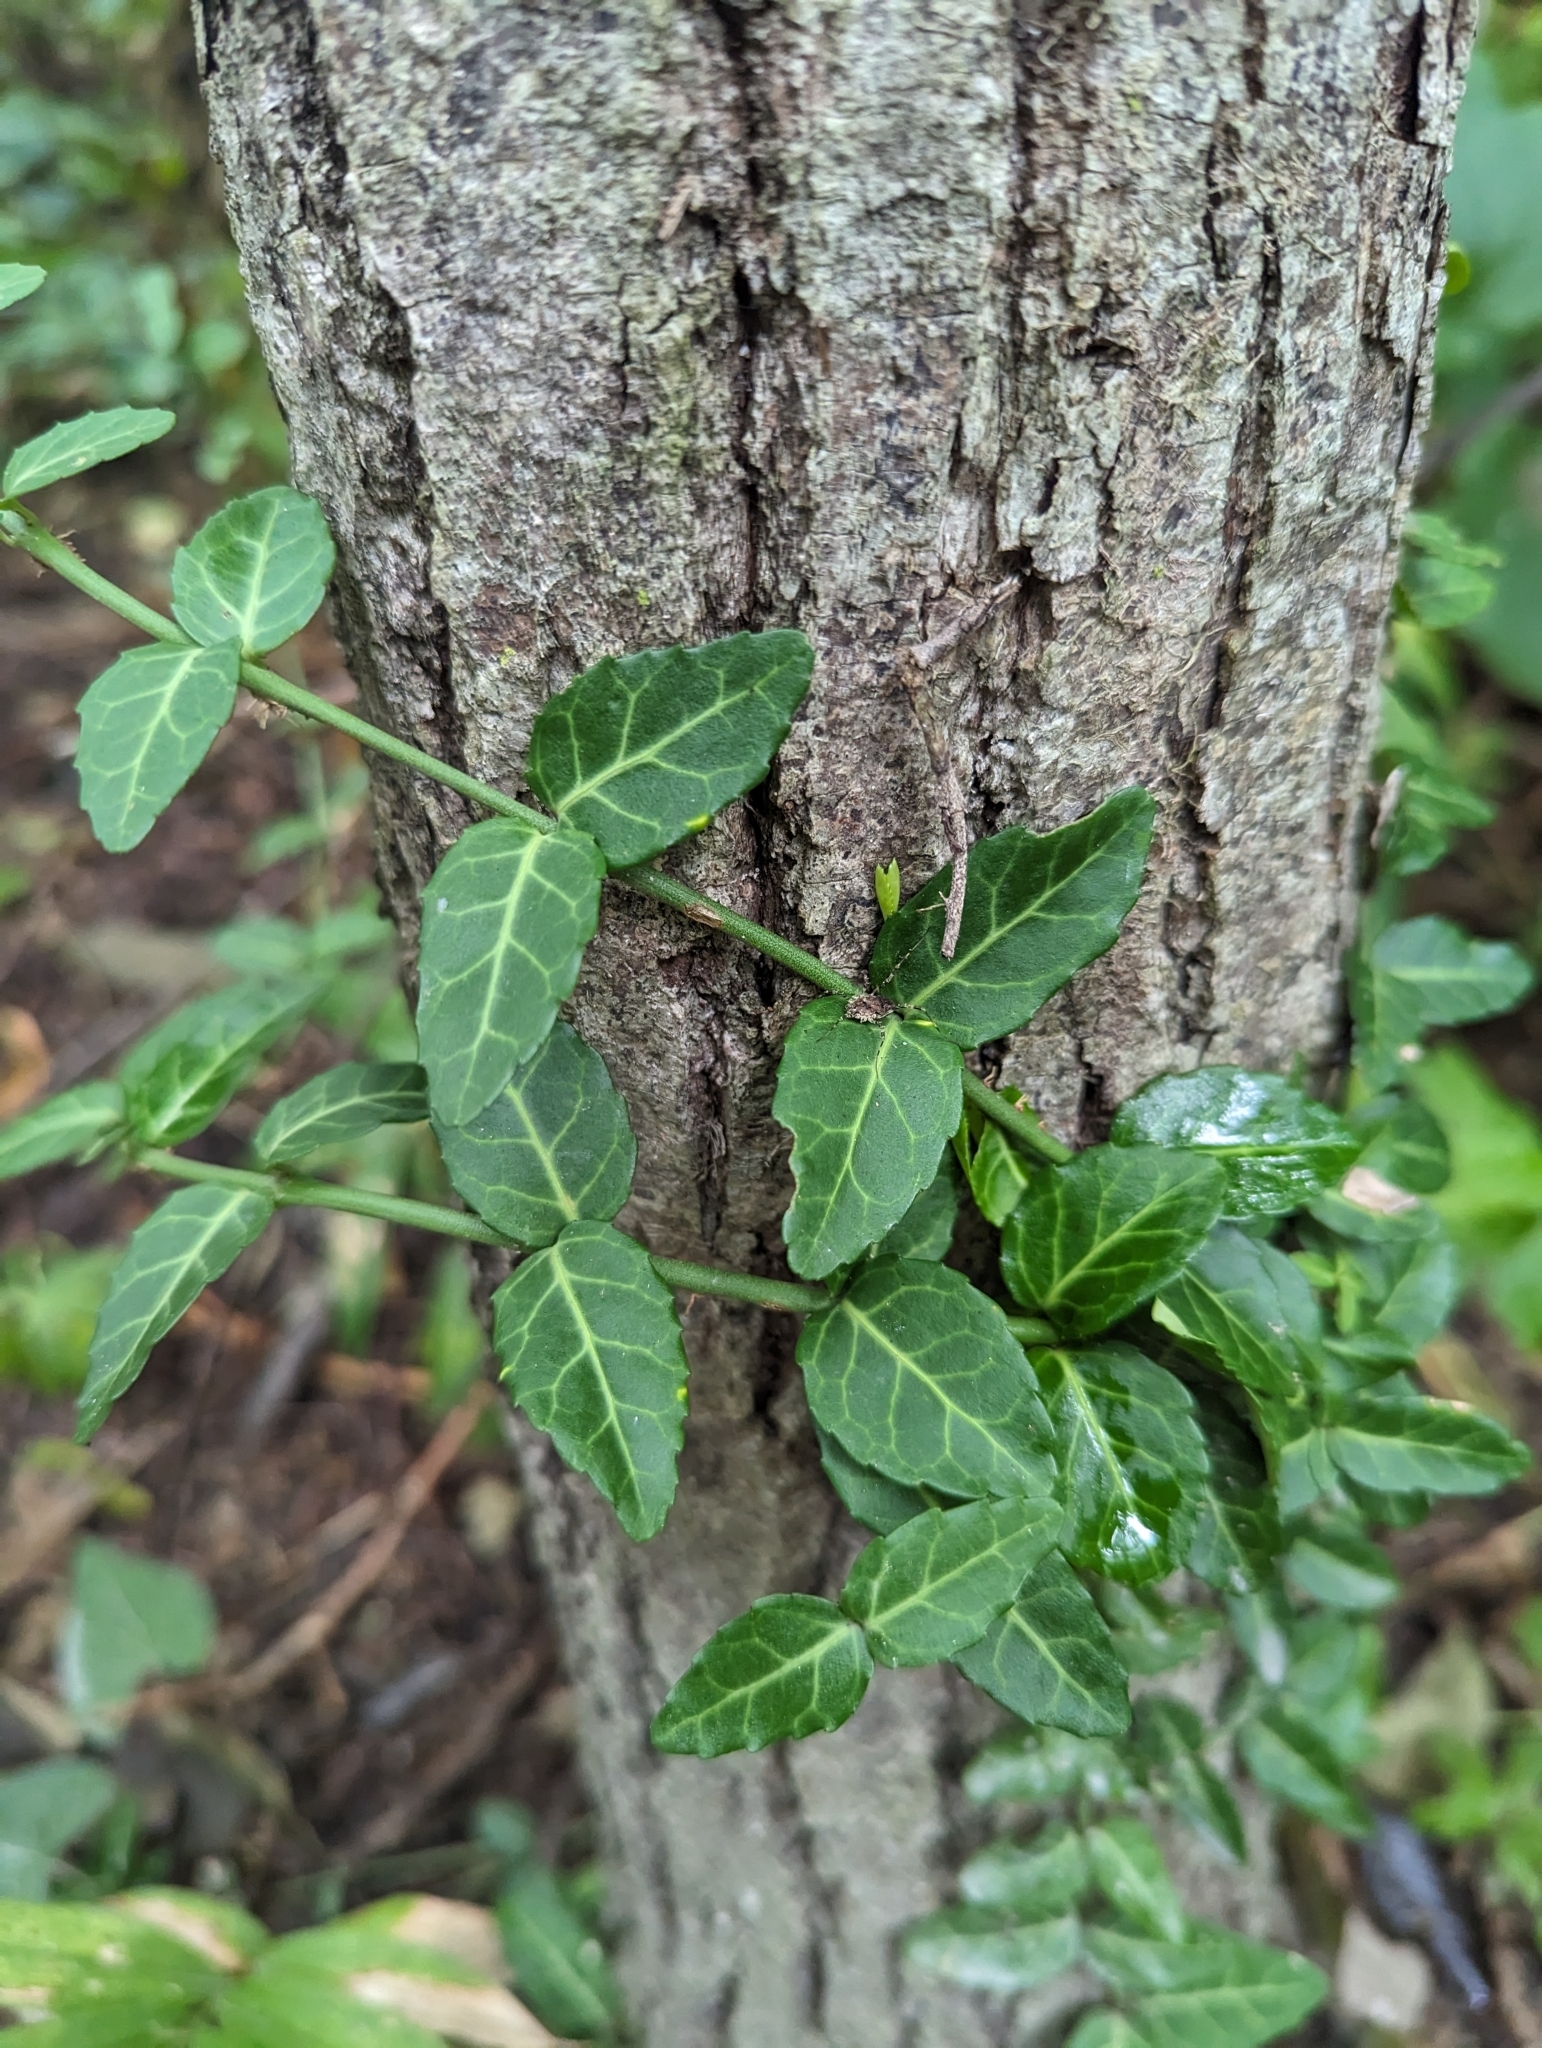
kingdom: Plantae
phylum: Tracheophyta
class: Magnoliopsida
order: Celastrales
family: Celastraceae
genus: Euonymus
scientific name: Euonymus fortunei
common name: Climbing euonymus
